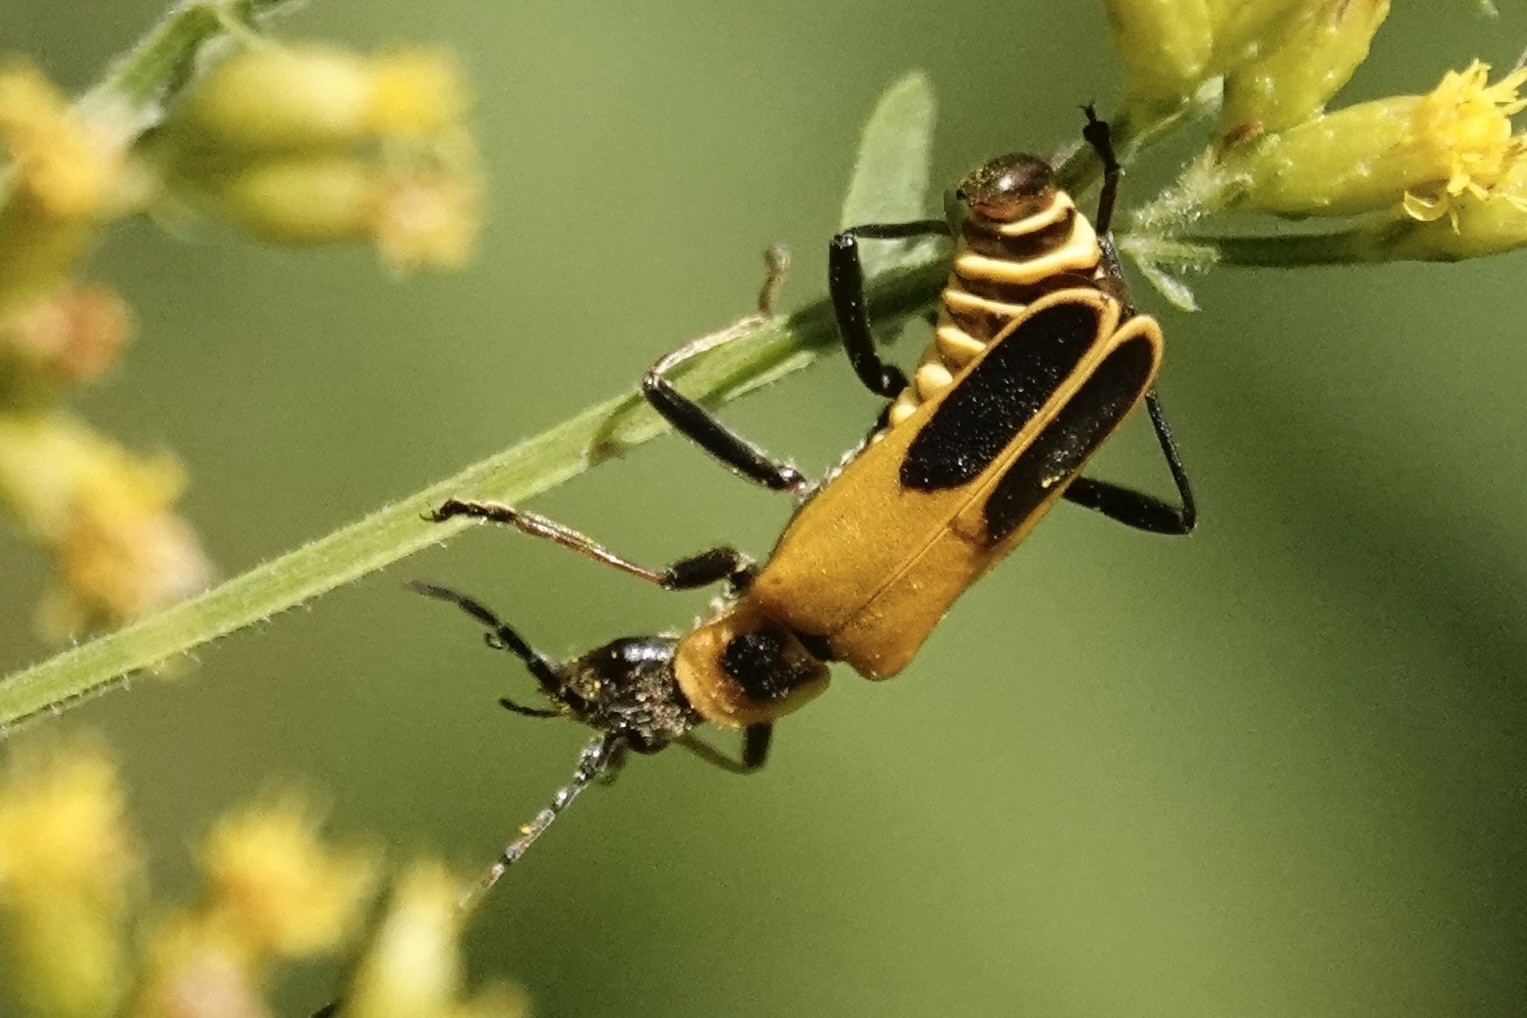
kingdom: Animalia
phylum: Arthropoda
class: Insecta
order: Coleoptera
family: Cantharidae
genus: Chauliognathus
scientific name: Chauliognathus pensylvanicus
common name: Goldenrod soldier beetle
